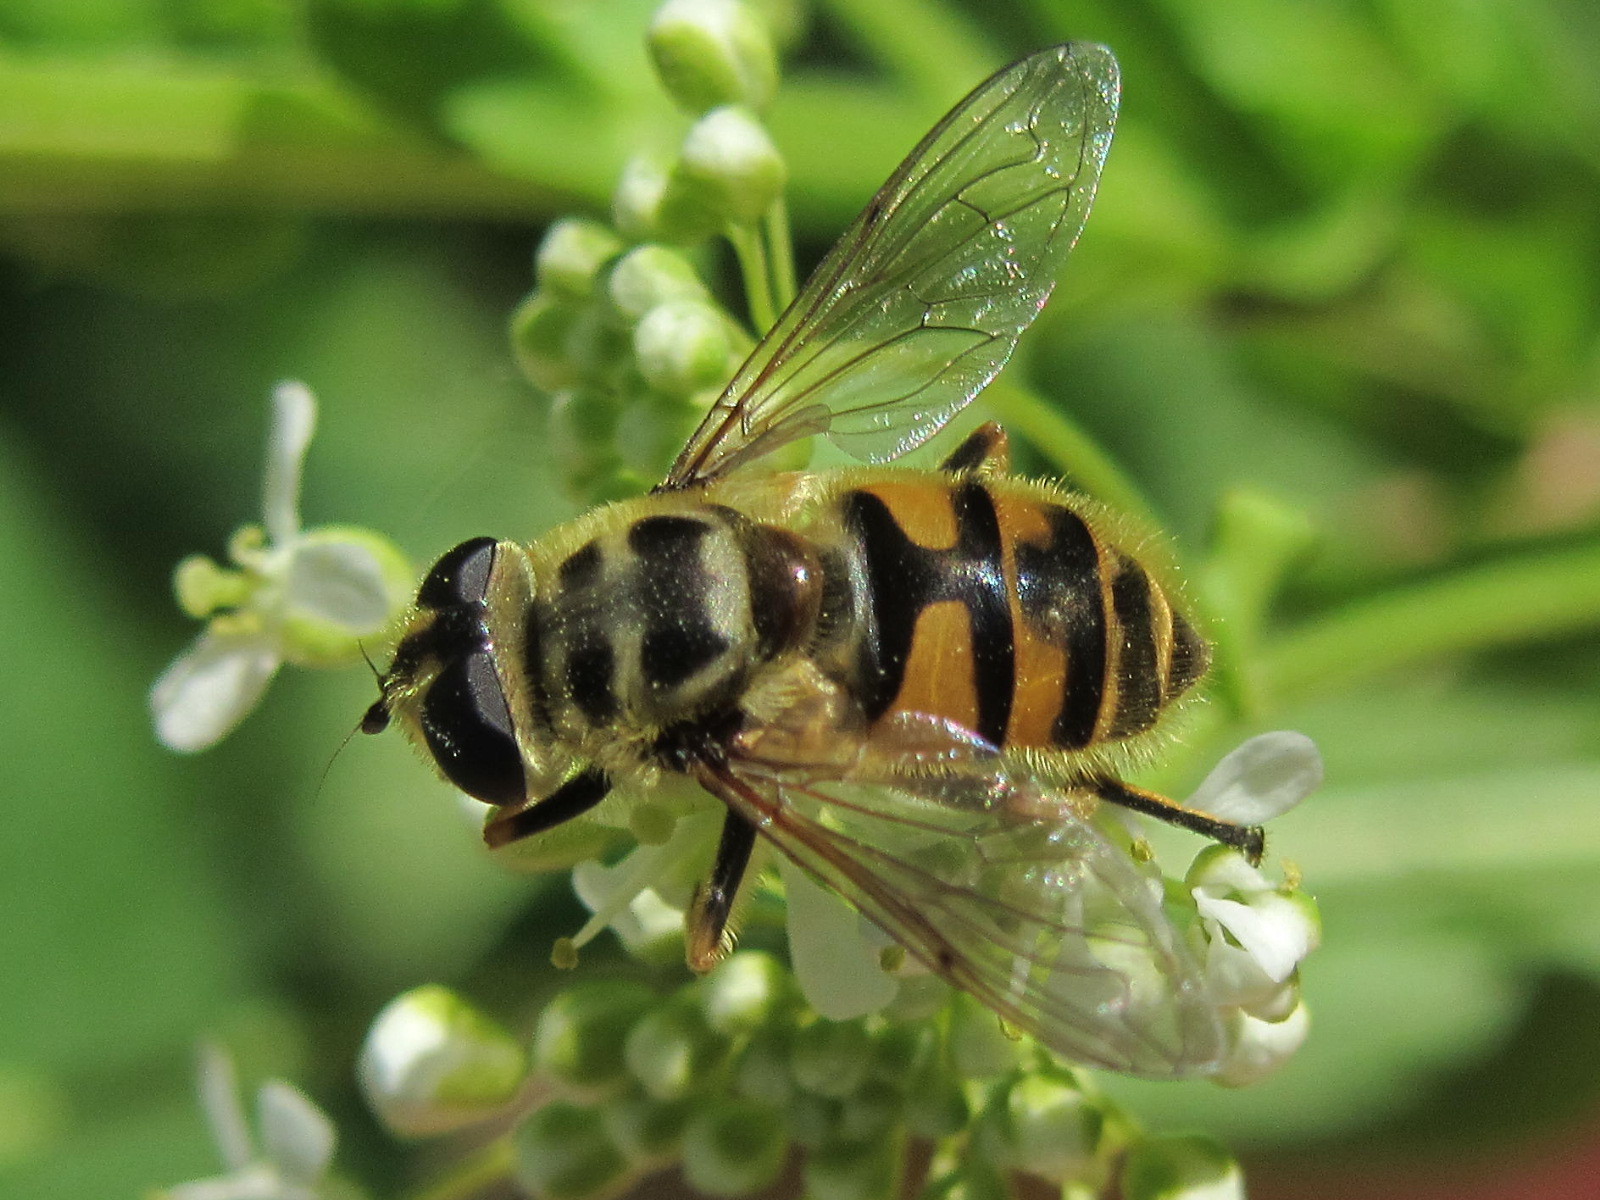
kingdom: Animalia
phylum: Arthropoda
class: Insecta
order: Diptera
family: Syrphidae
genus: Myathropa
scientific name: Myathropa florea
